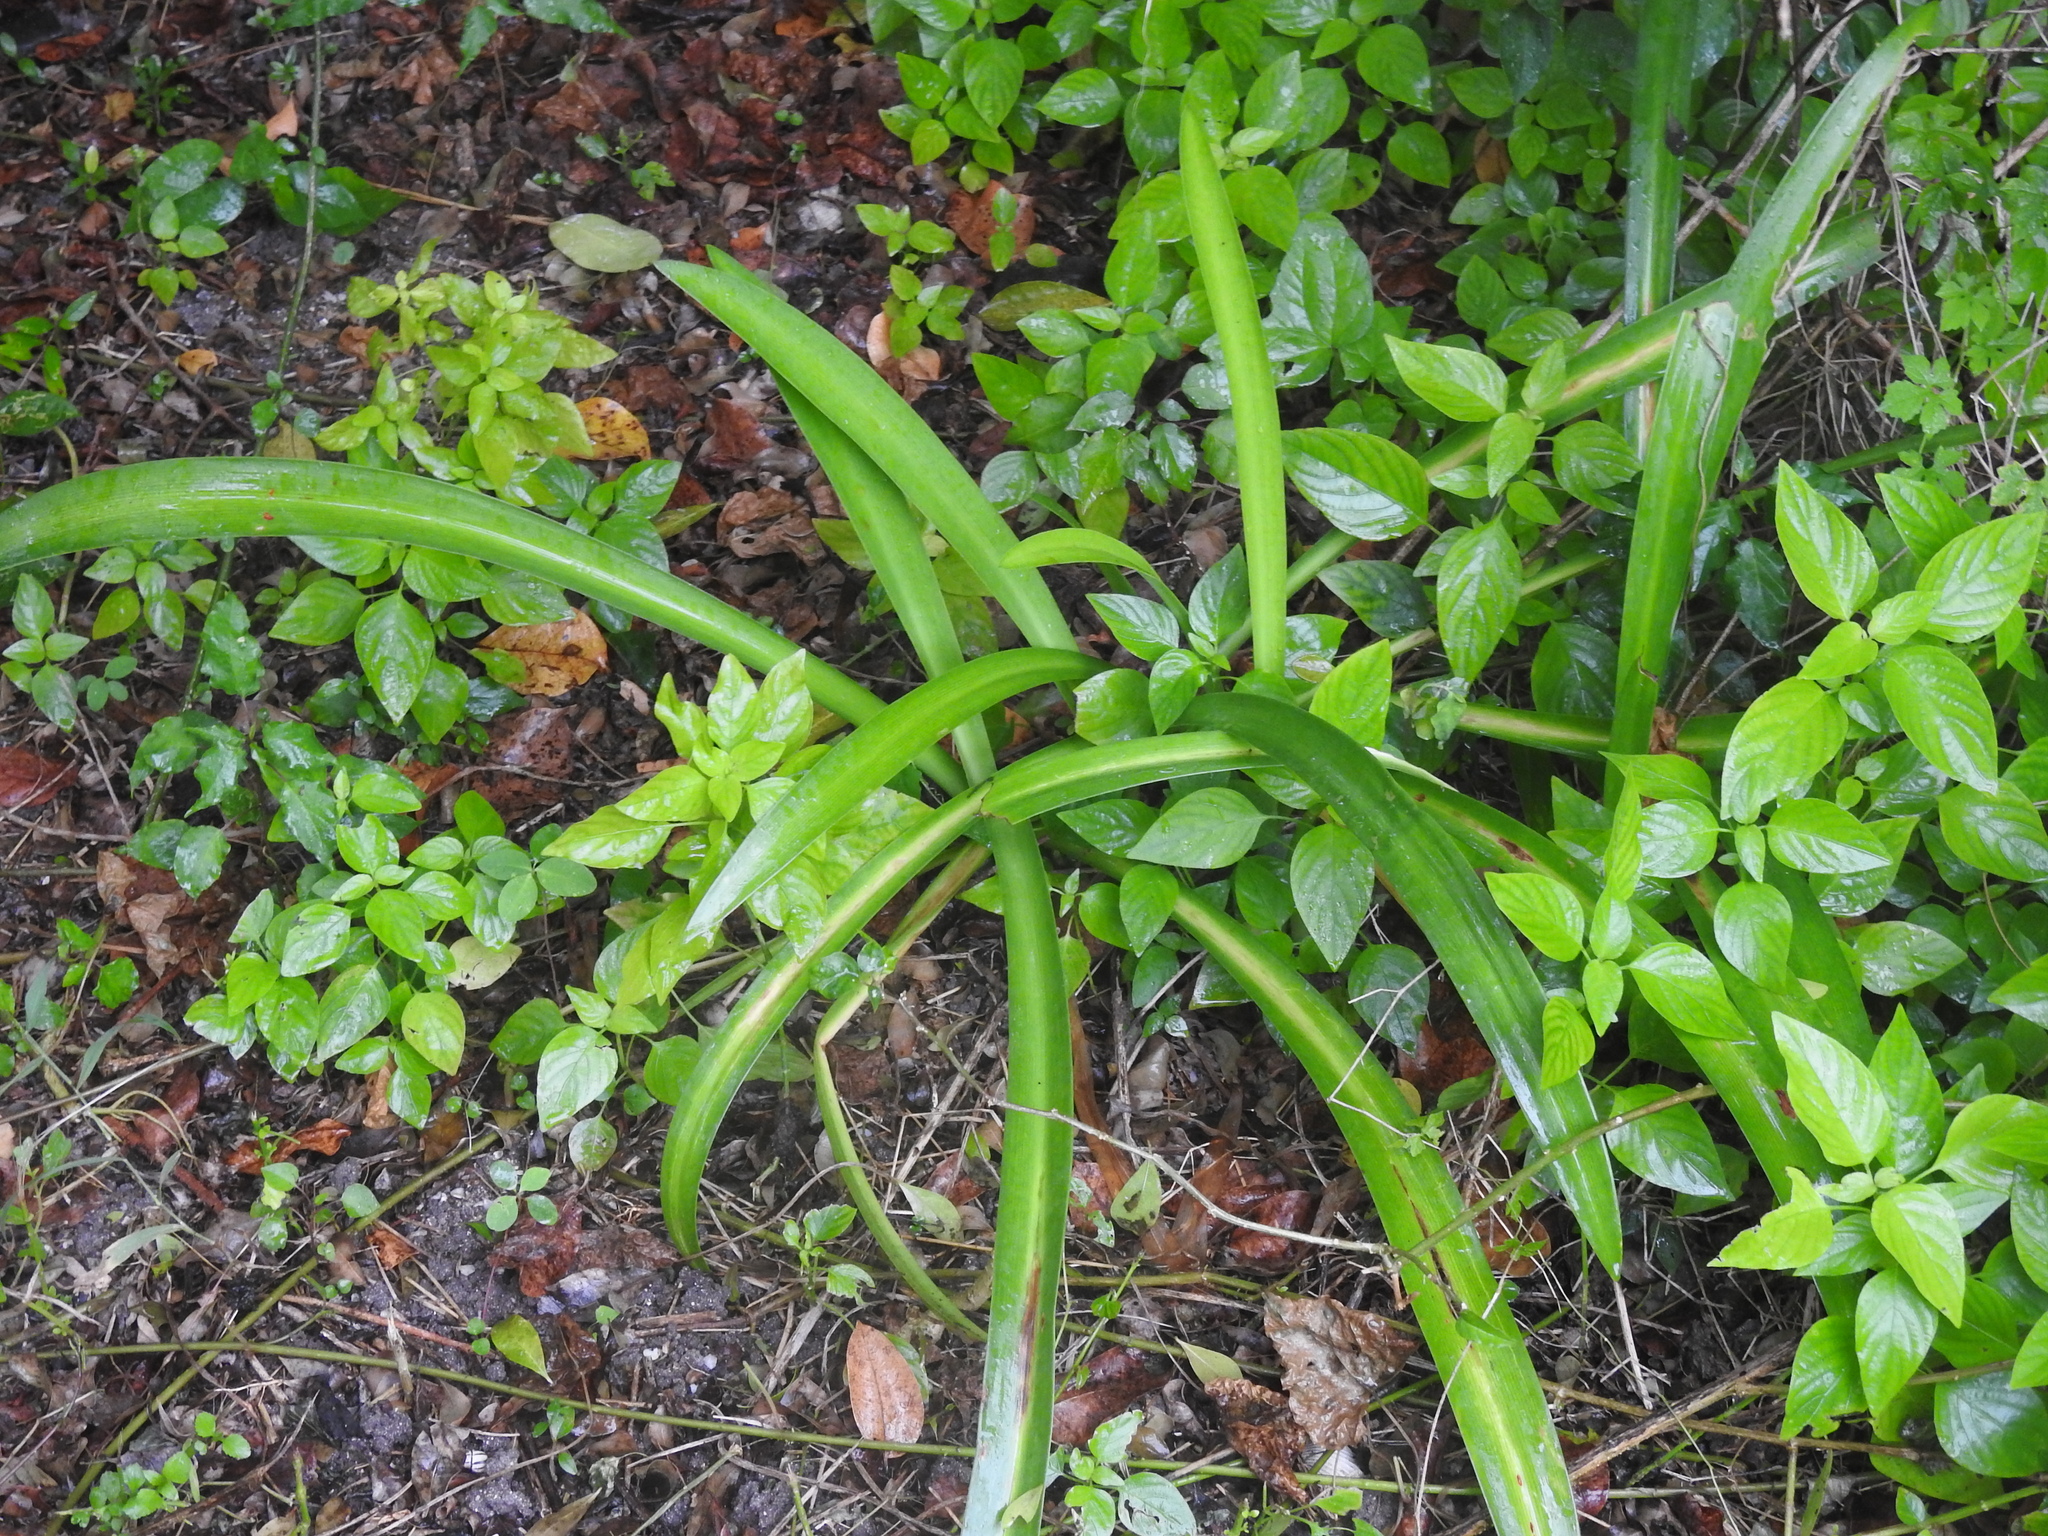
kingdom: Plantae
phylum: Tracheophyta
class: Liliopsida
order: Asparagales
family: Amaryllidaceae
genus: Hymenocallis
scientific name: Hymenocallis latifolia
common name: Cayman islands spider-lily
